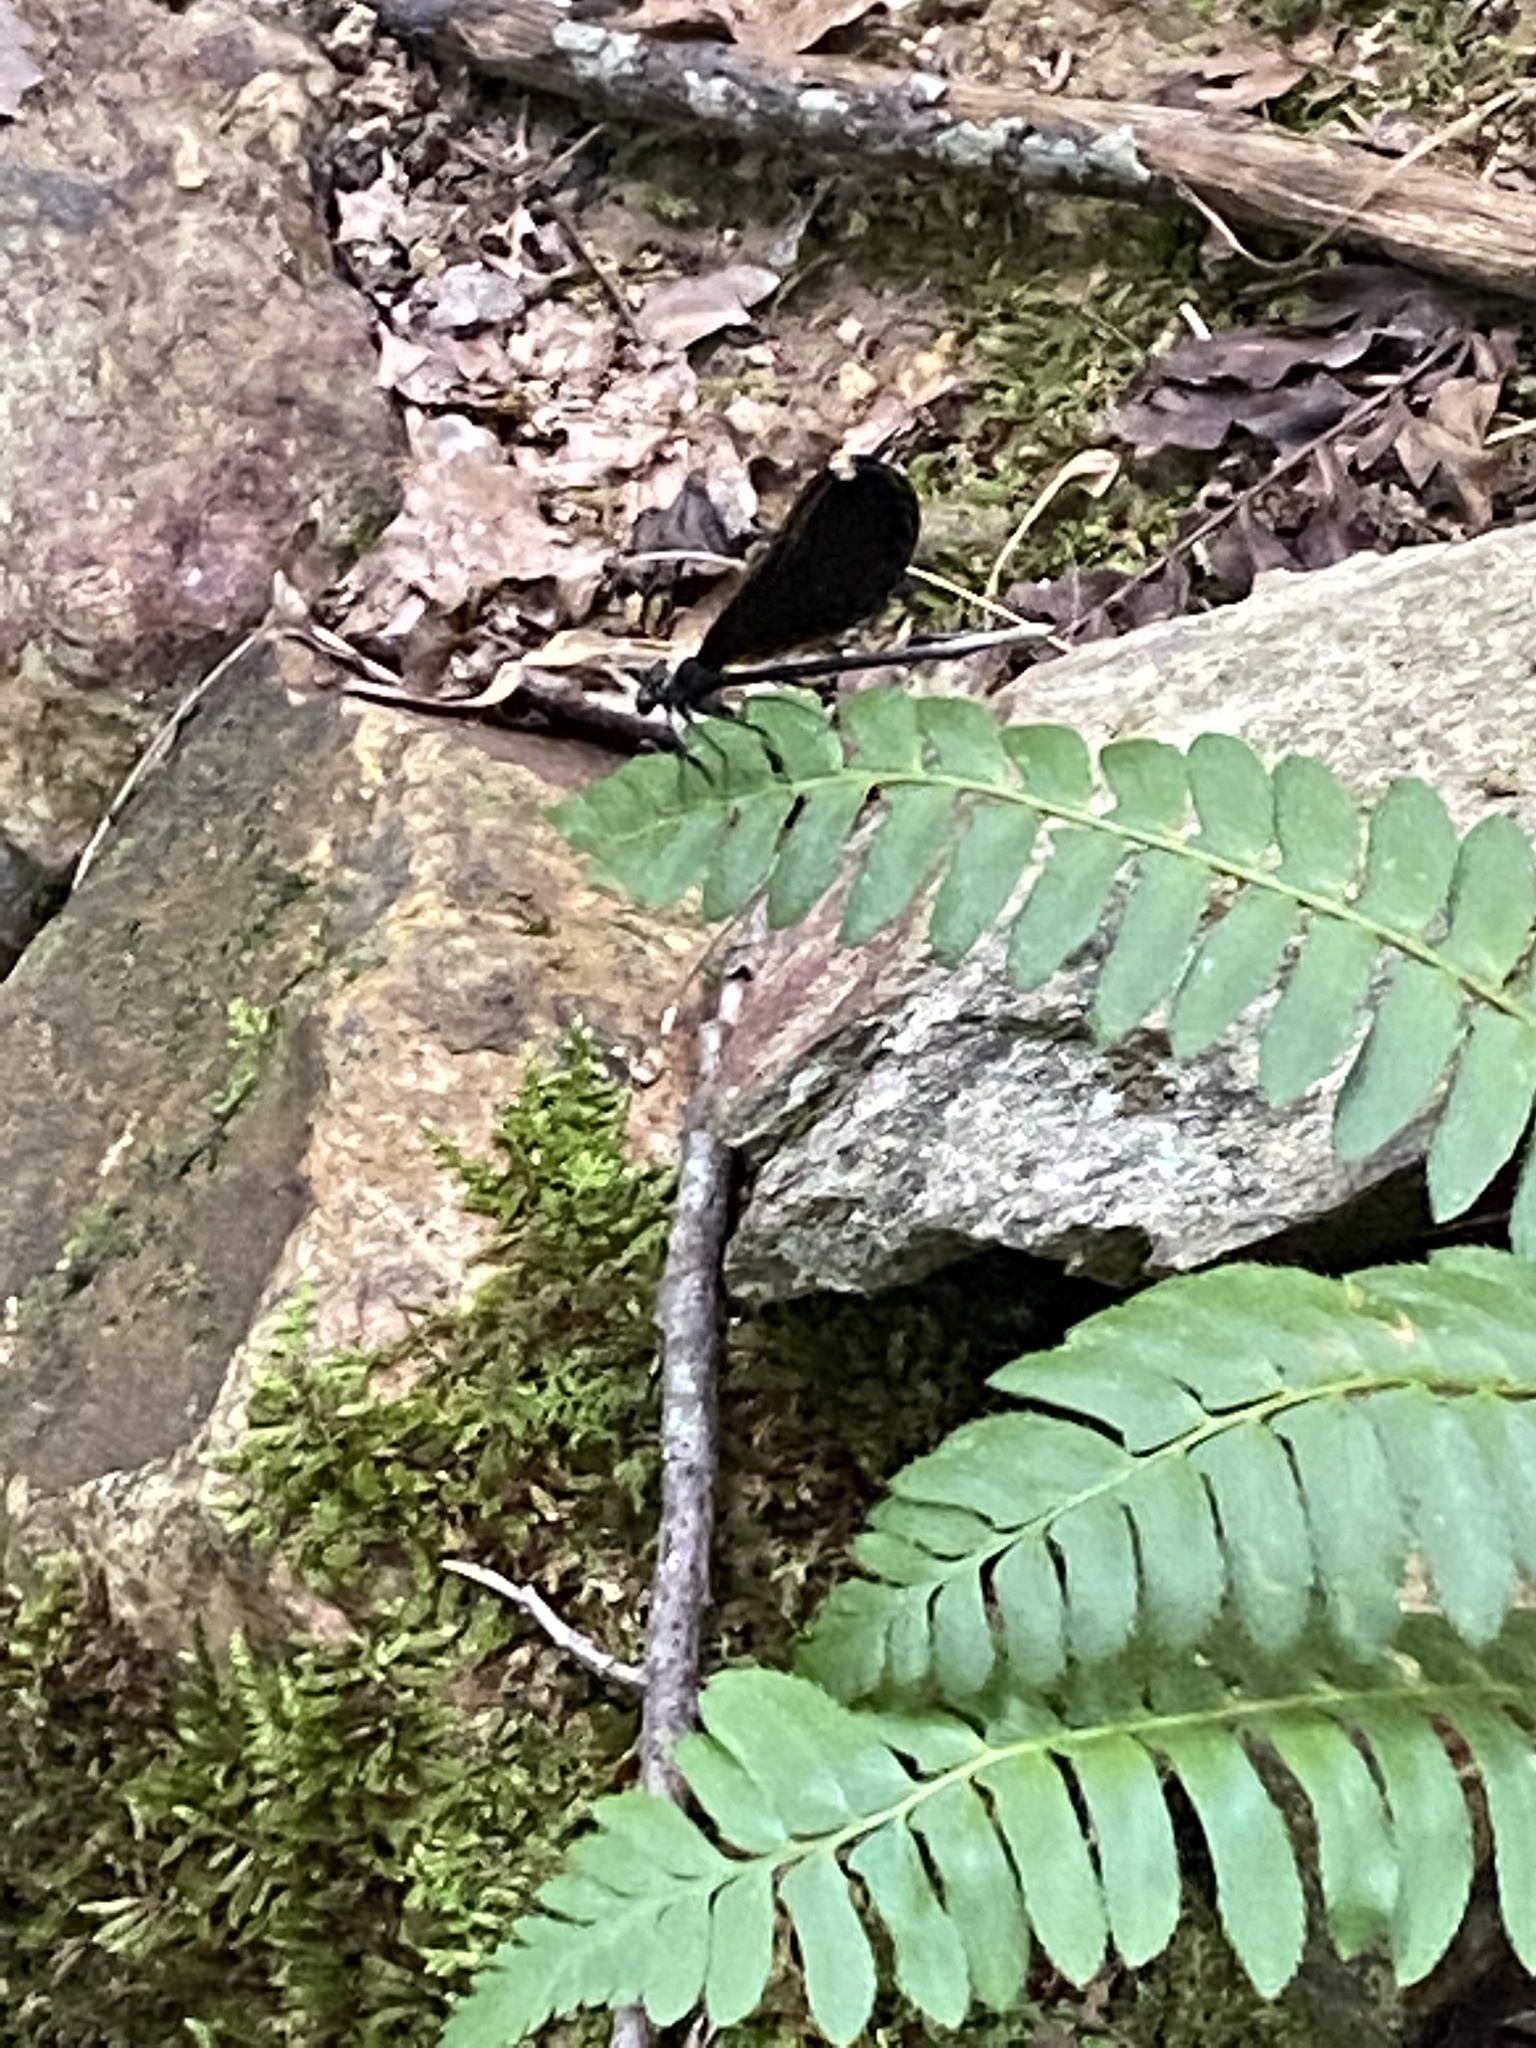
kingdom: Animalia
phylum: Arthropoda
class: Insecta
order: Odonata
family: Calopterygidae
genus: Calopteryx
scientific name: Calopteryx maculata
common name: Ebony jewelwing
